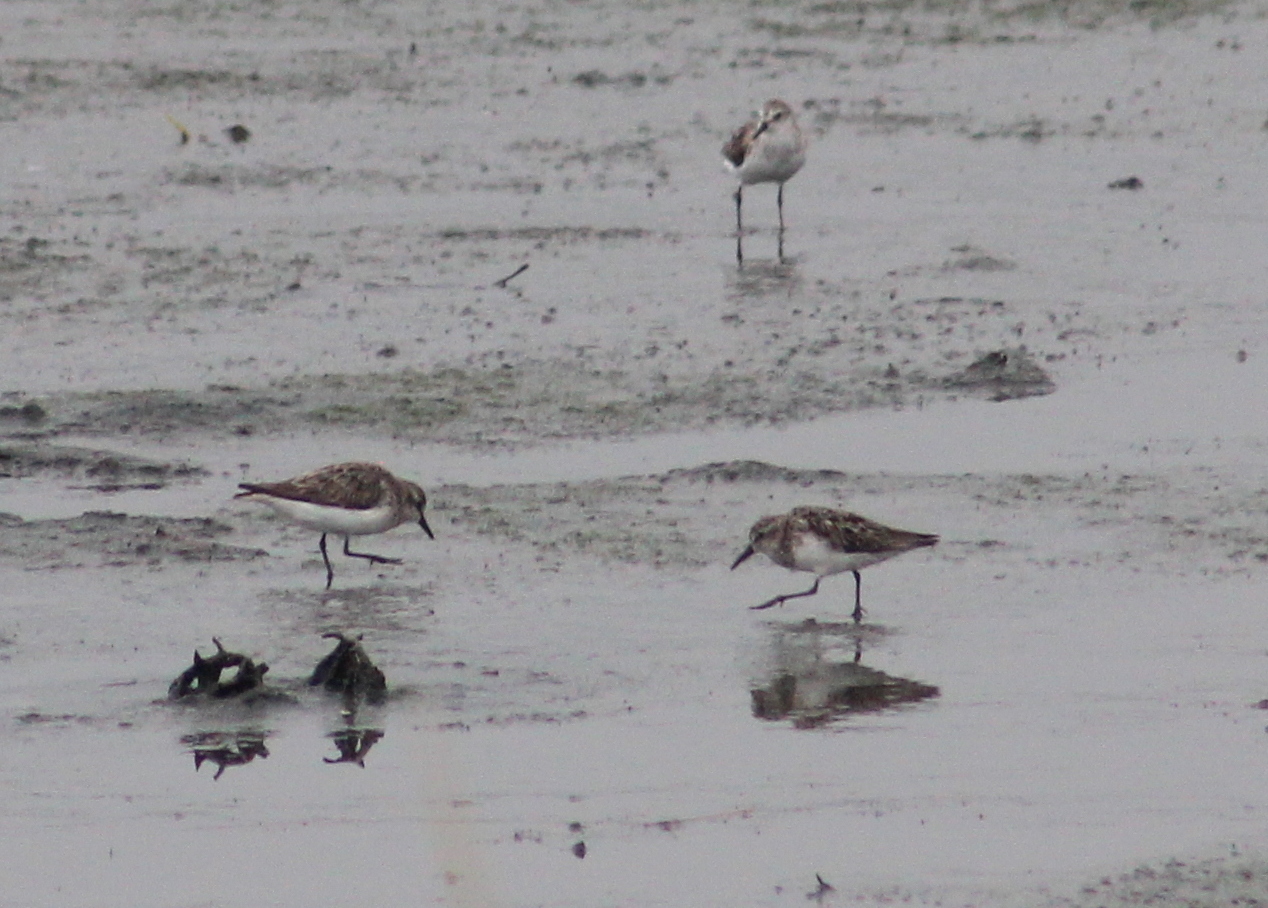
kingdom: Animalia
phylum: Chordata
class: Aves
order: Charadriiformes
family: Scolopacidae
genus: Calidris
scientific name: Calidris pusilla
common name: Semipalmated sandpiper
